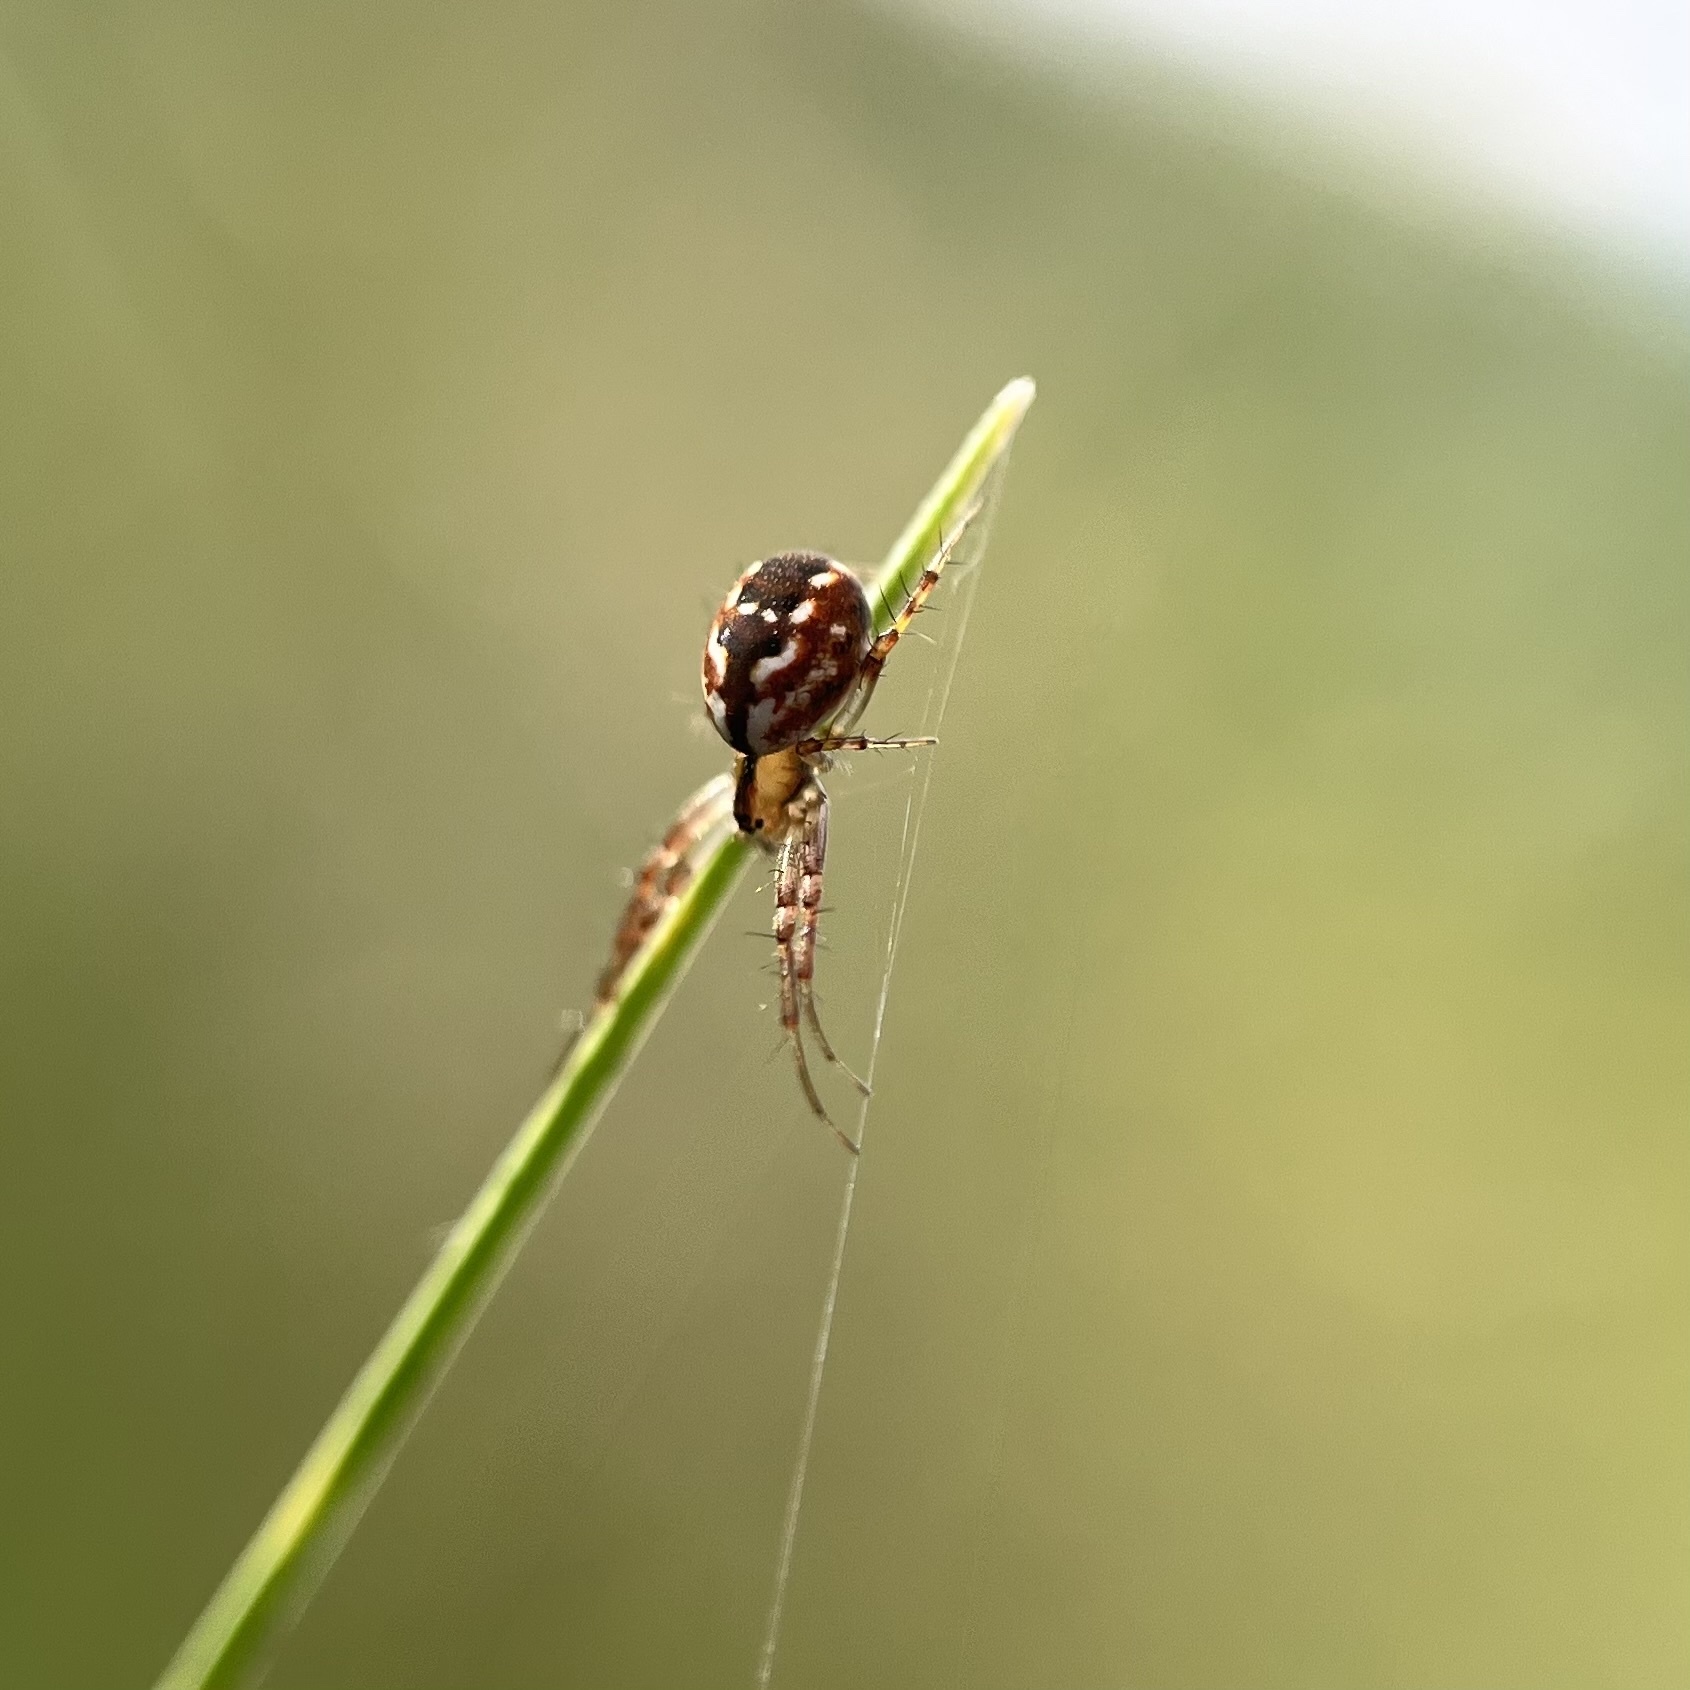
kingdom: Animalia
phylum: Arthropoda
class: Arachnida
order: Araneae
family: Araneidae
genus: Mangora
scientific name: Mangora placida
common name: Tuft-legged orbweaver
